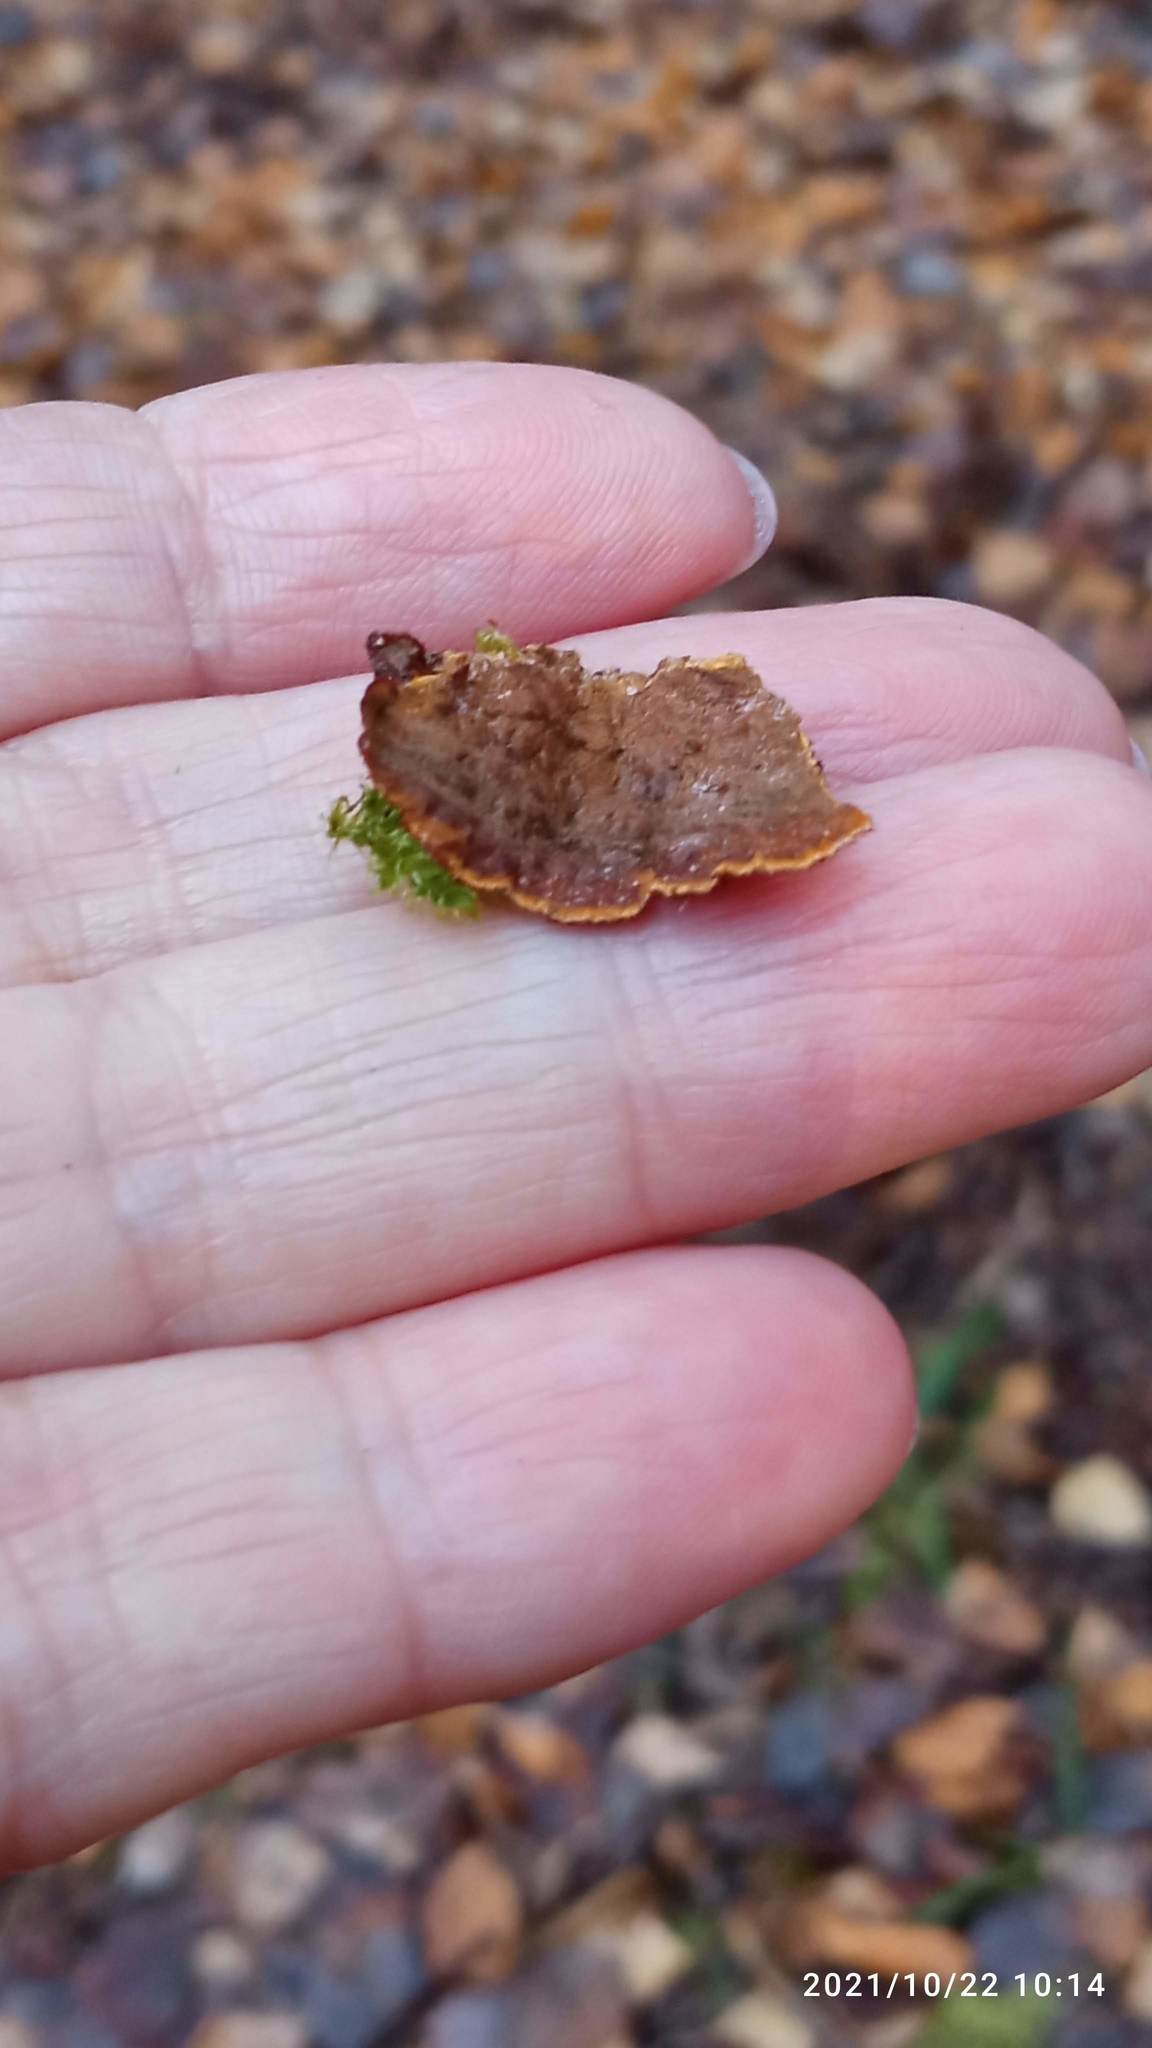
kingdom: Fungi
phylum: Basidiomycota
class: Agaricomycetes
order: Hymenochaetales
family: Hymenochaetaceae
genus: Hydnoporia
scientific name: Hydnoporia tabacina
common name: Willow glue
